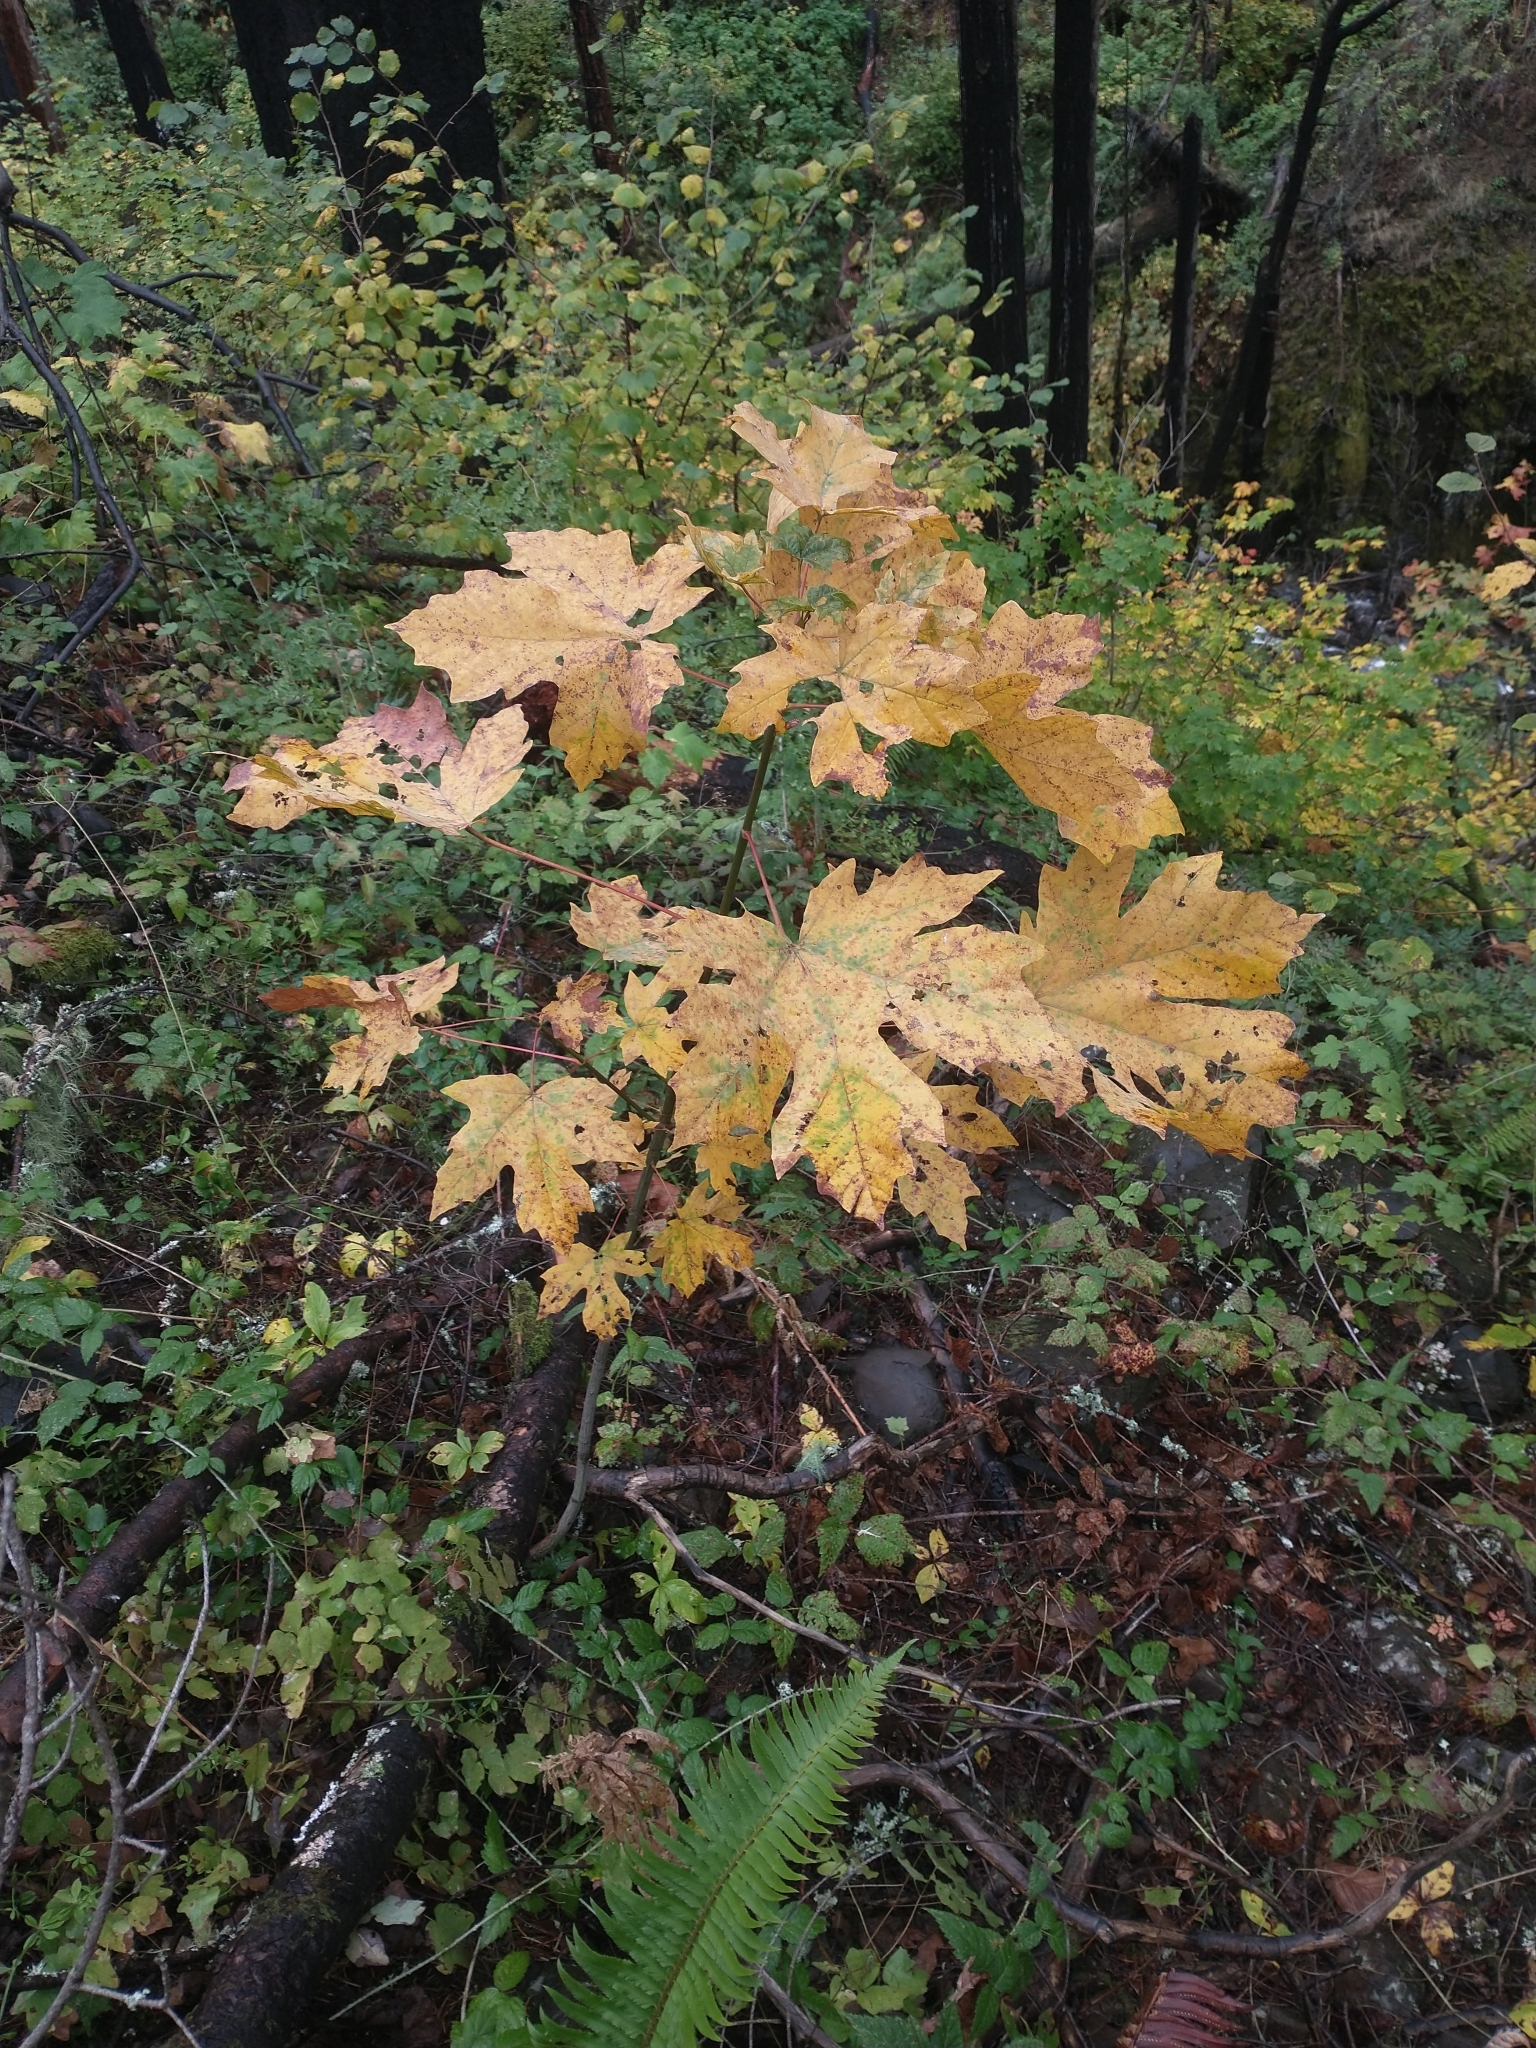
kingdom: Plantae
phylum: Tracheophyta
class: Magnoliopsida
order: Sapindales
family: Sapindaceae
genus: Acer
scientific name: Acer macrophyllum
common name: Oregon maple
